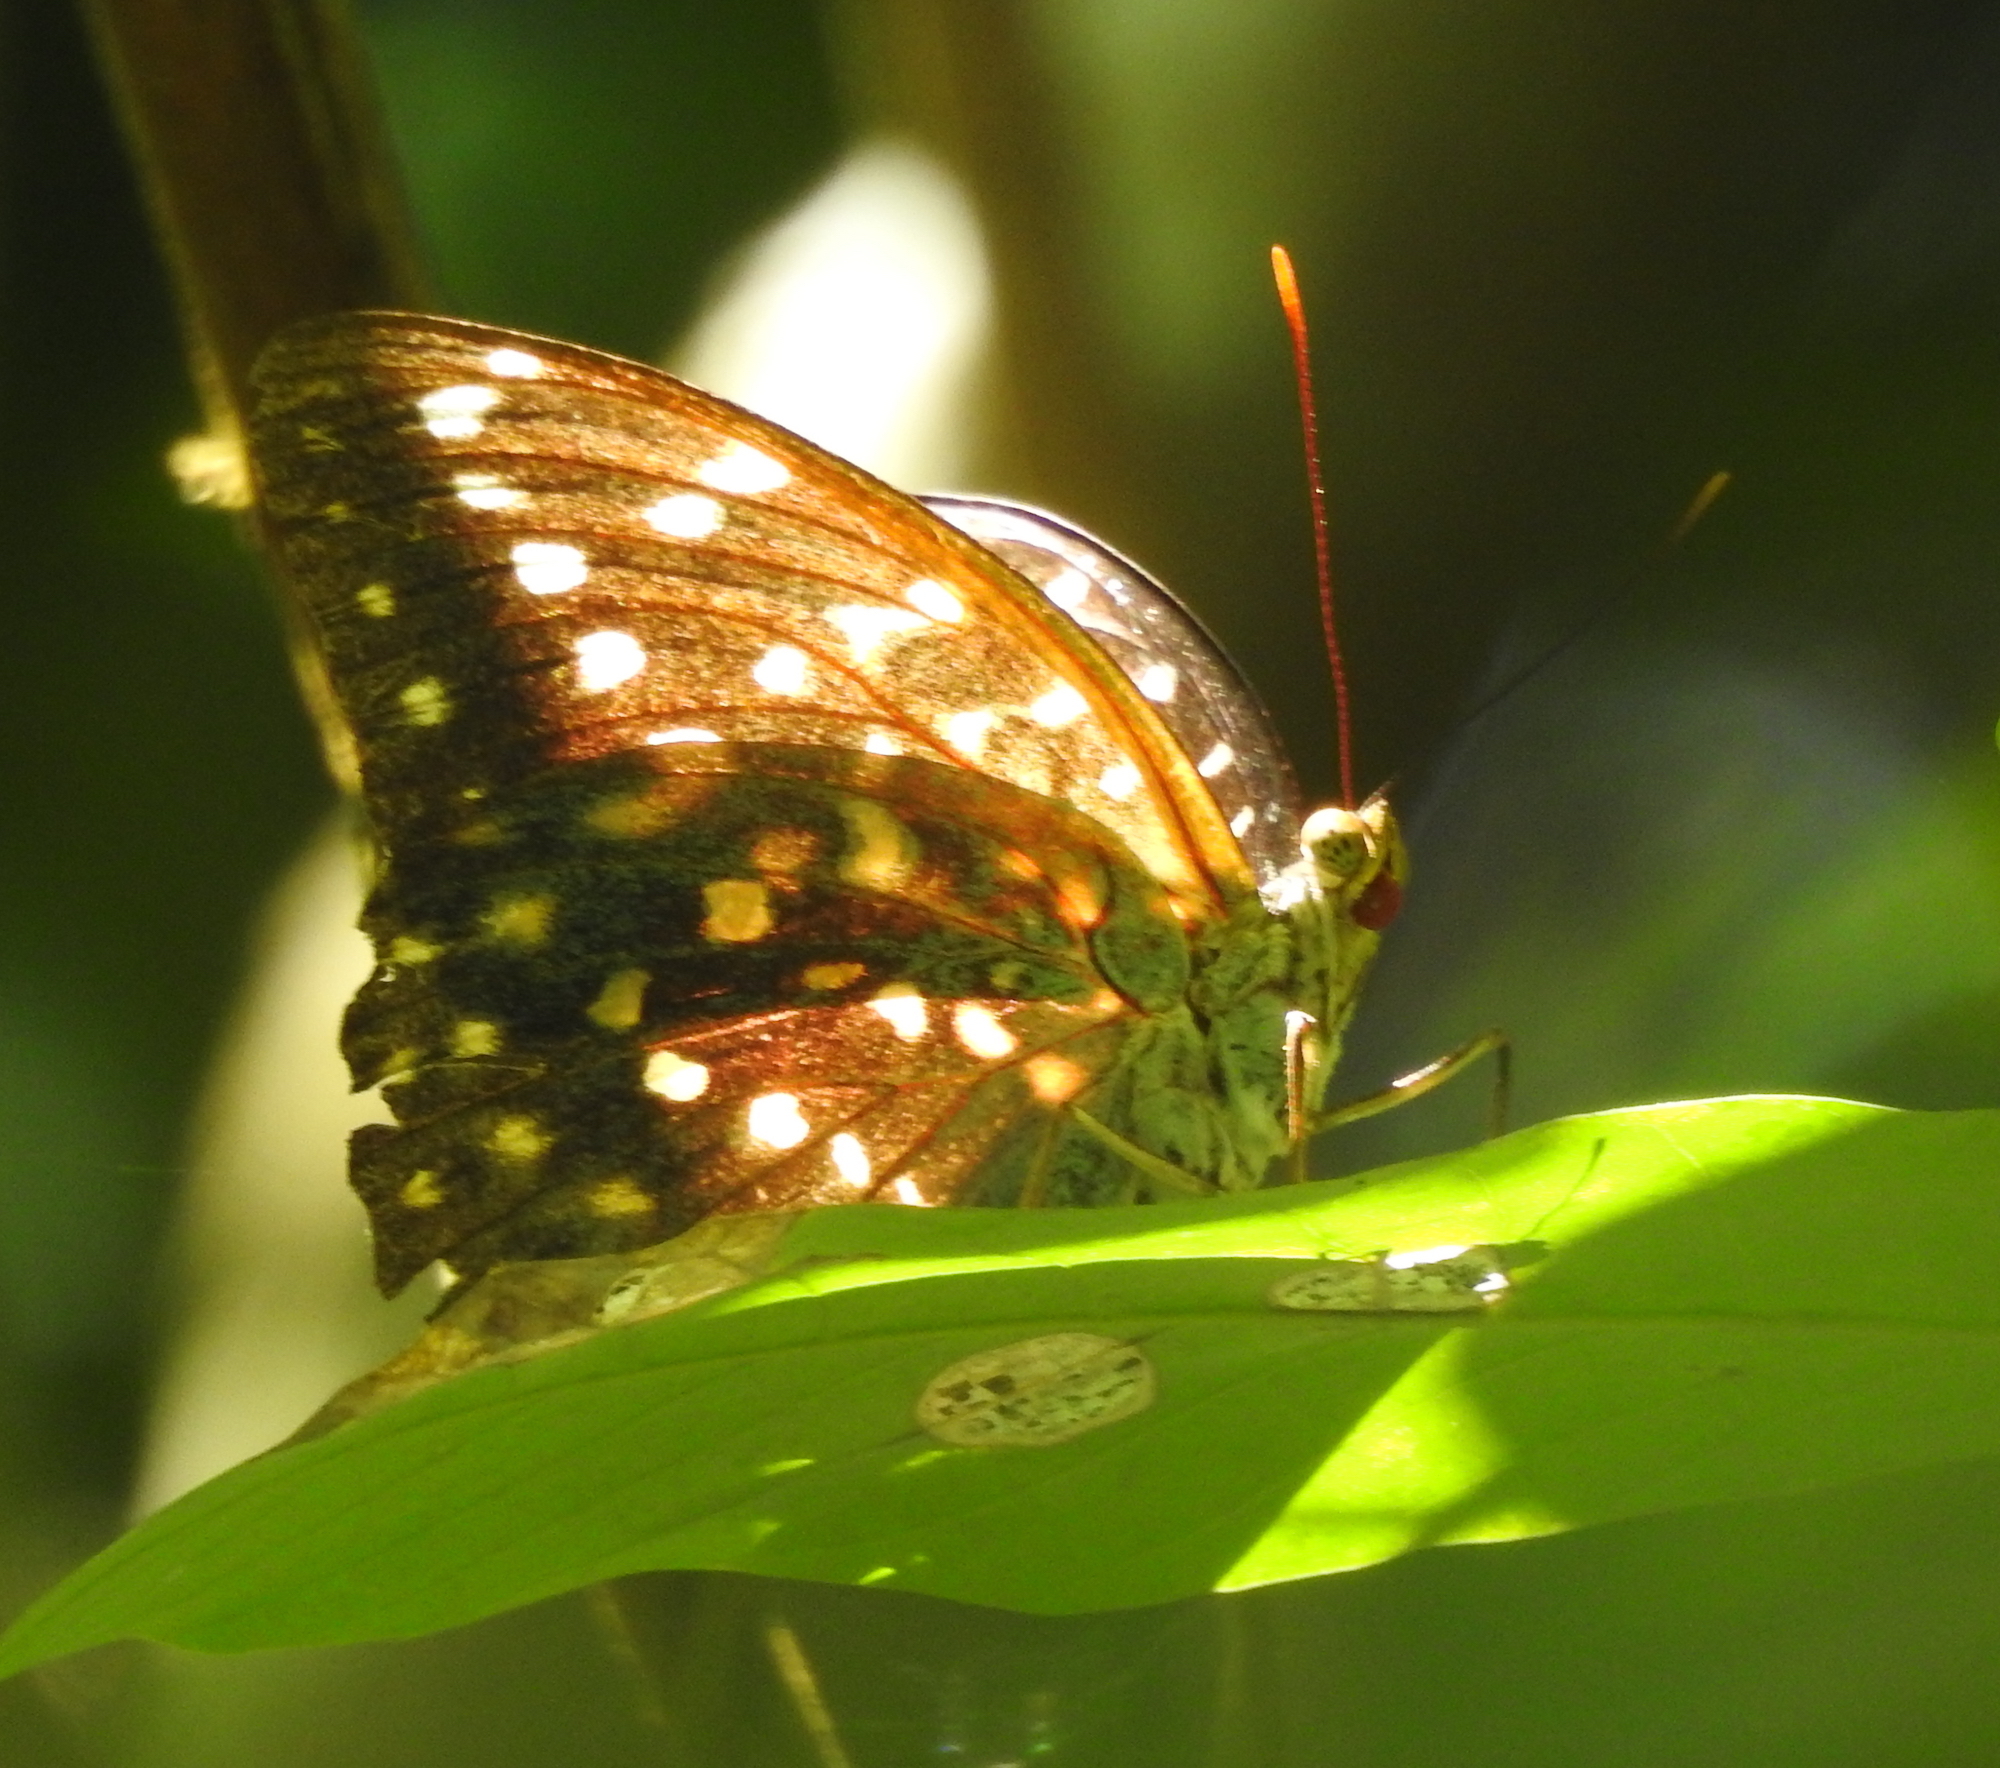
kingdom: Animalia
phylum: Arthropoda
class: Insecta
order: Lepidoptera
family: Nymphalidae
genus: Lexias
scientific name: Lexias pardalis
